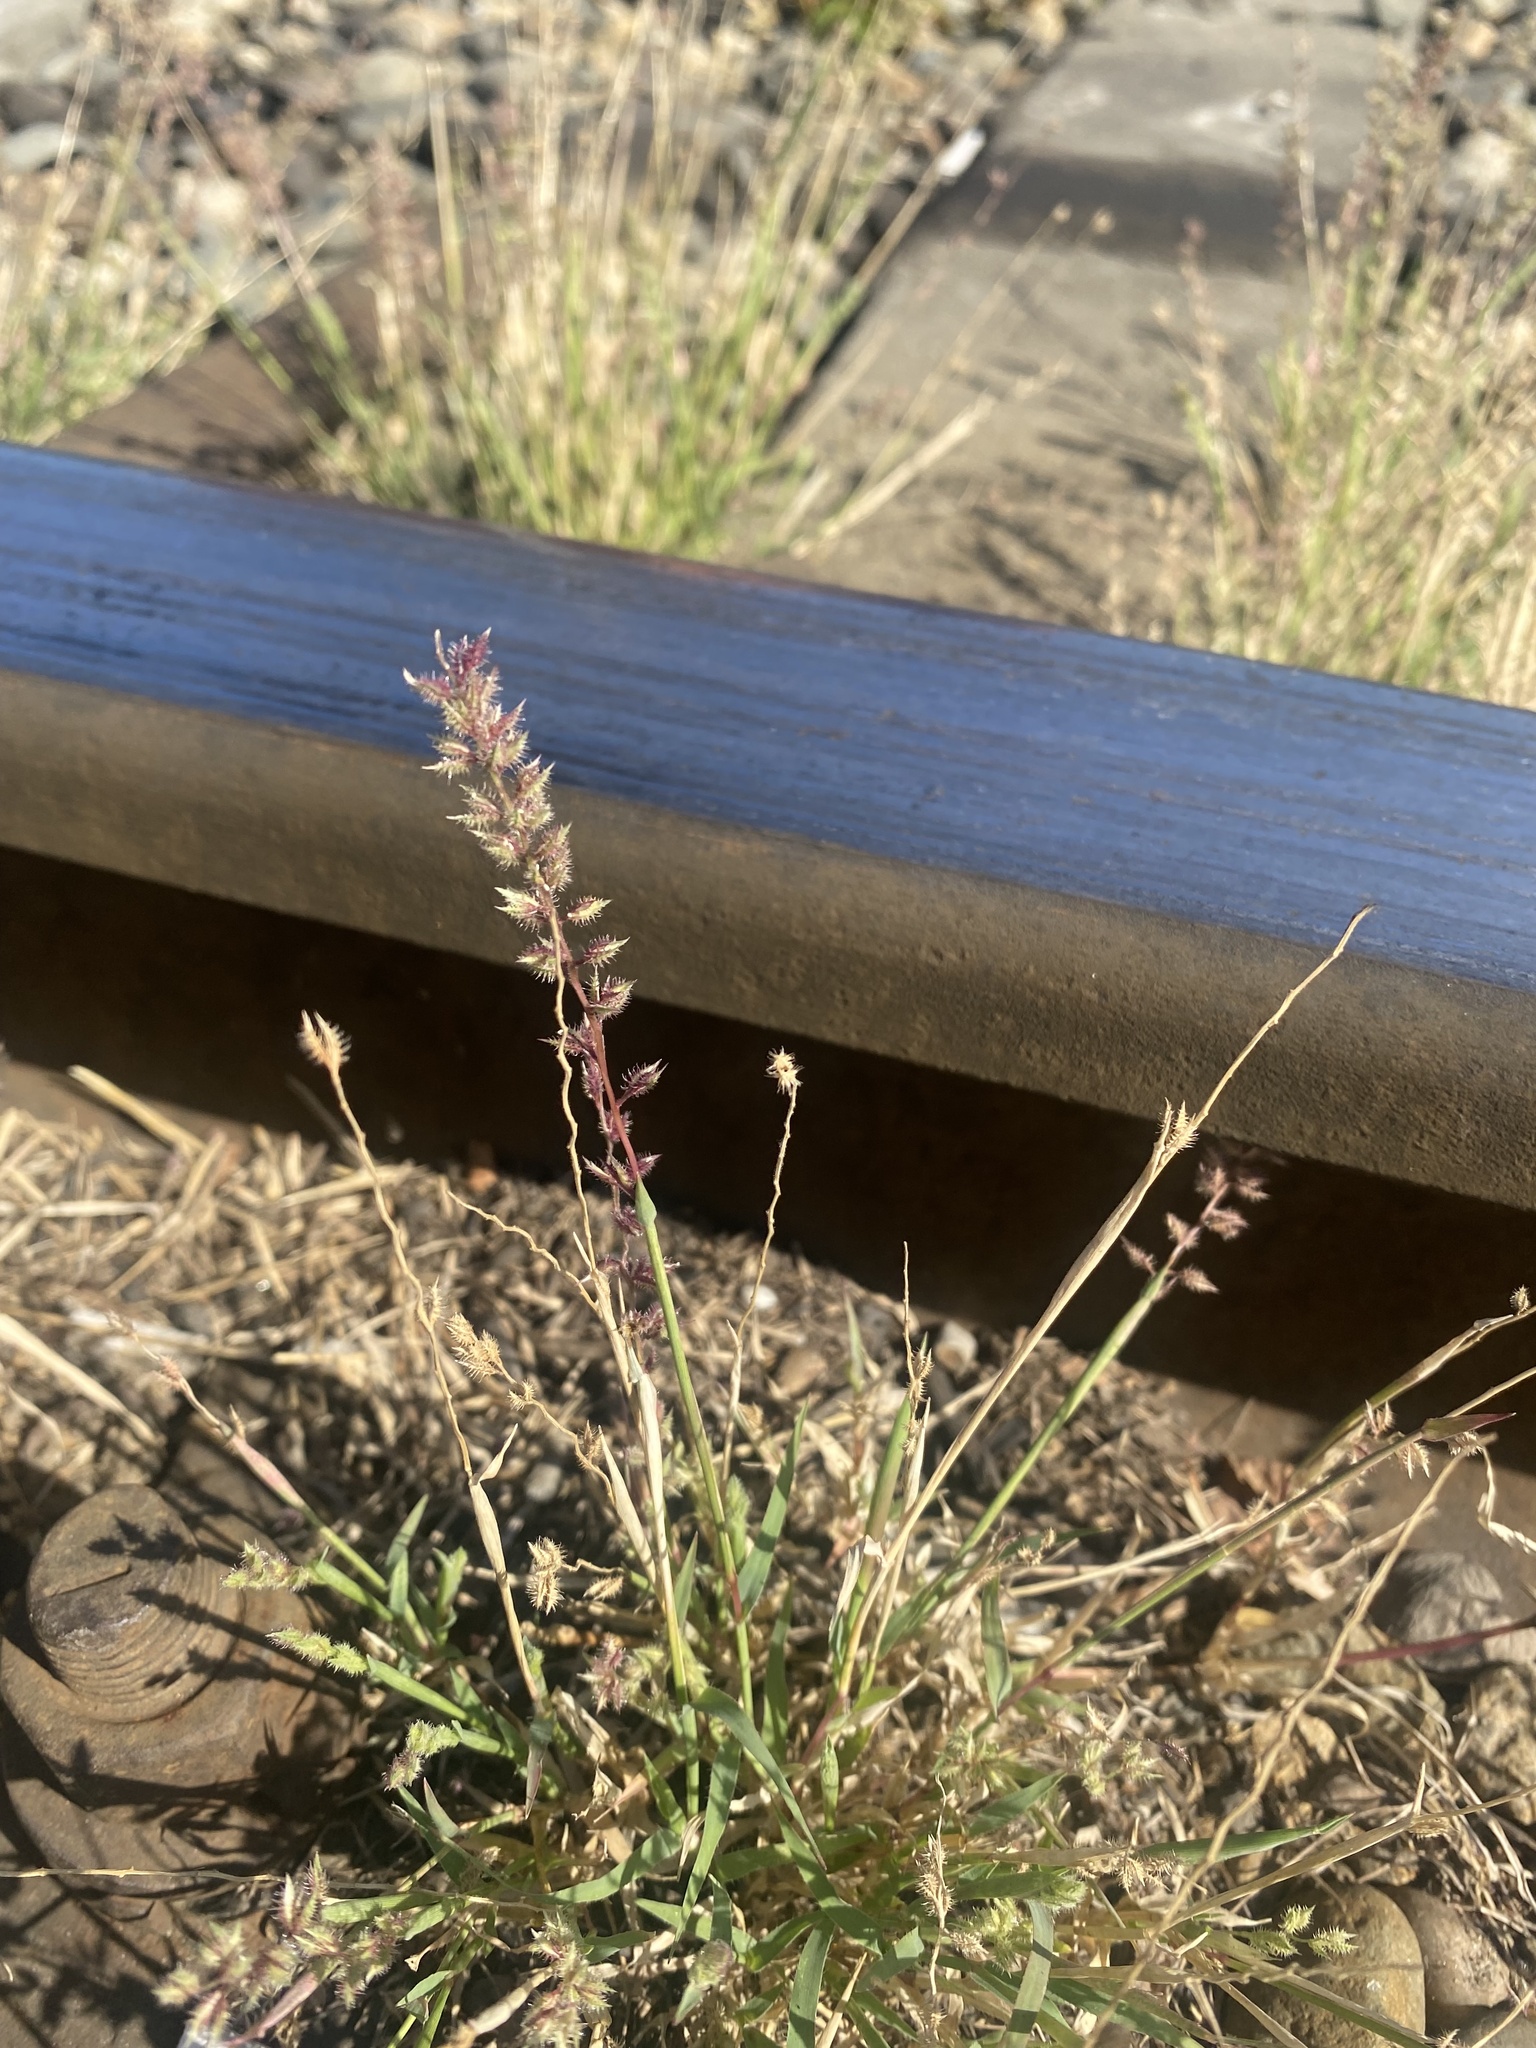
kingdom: Plantae
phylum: Tracheophyta
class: Liliopsida
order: Poales
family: Poaceae
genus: Tragus
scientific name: Tragus racemosus
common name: European bur-grass
